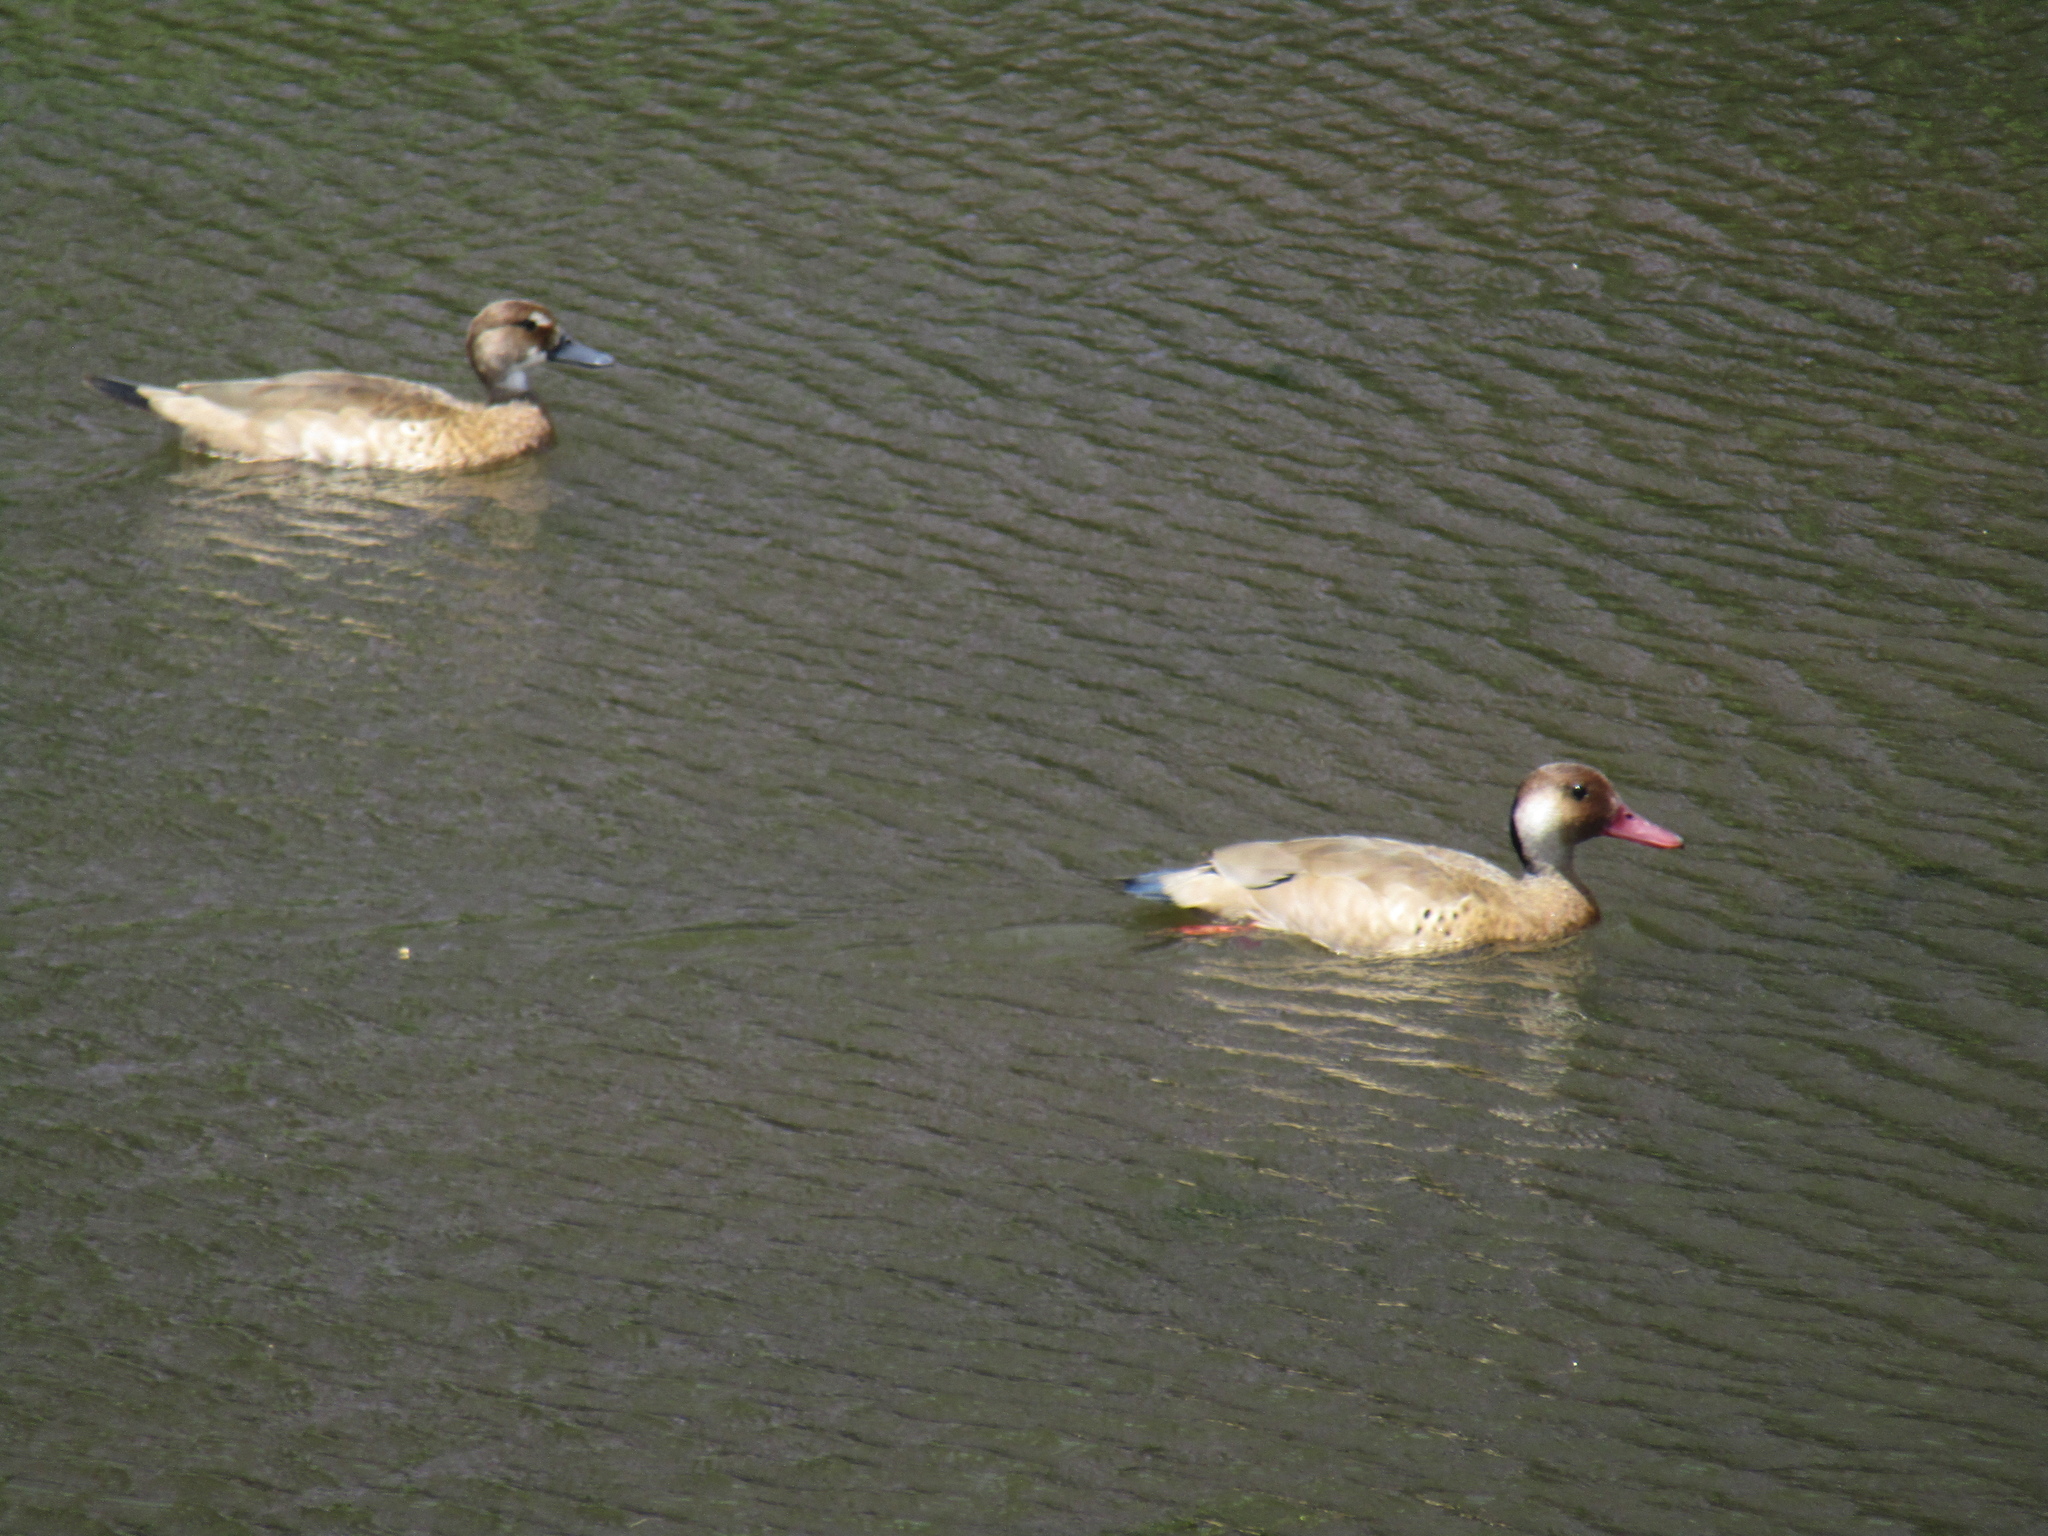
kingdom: Animalia
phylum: Chordata
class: Aves
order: Anseriformes
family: Anatidae
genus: Amazonetta
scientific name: Amazonetta brasiliensis
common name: Brazilian teal
